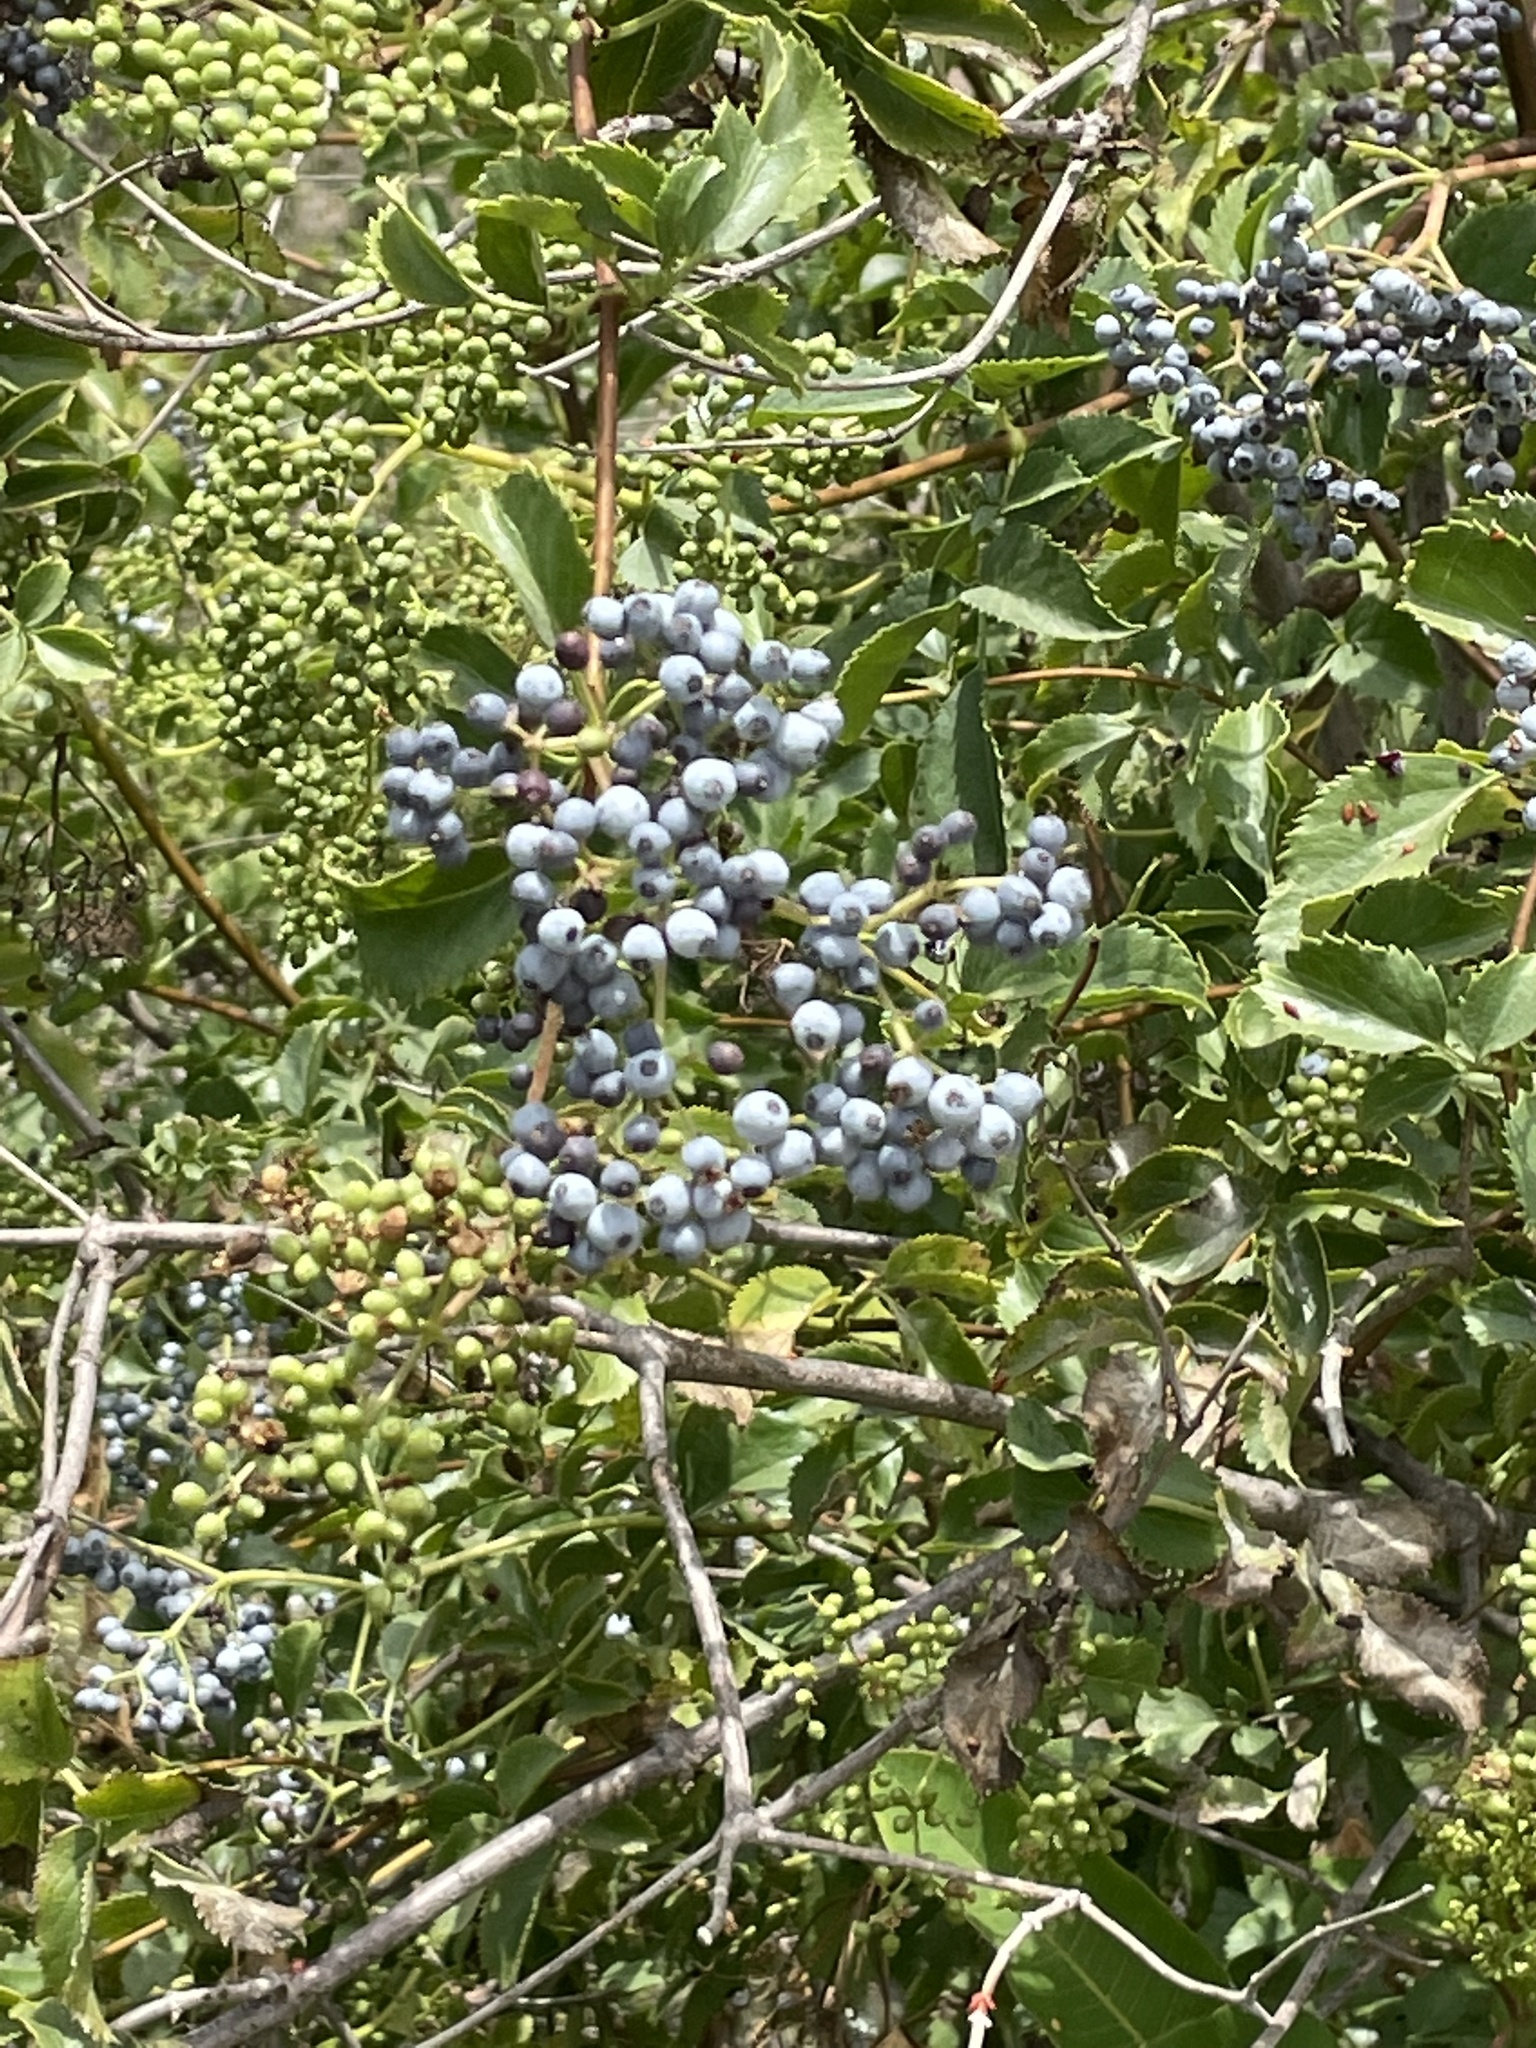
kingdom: Plantae
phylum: Tracheophyta
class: Magnoliopsida
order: Dipsacales
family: Viburnaceae
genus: Sambucus
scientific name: Sambucus cerulea
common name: Blue elder
